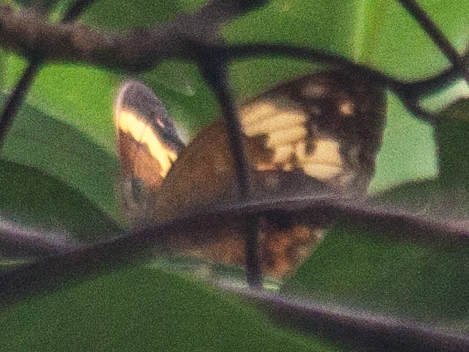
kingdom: Animalia
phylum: Arthropoda
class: Insecta
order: Lepidoptera
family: Nymphalidae
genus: Cupha
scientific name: Cupha erymanthis
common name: Rustic
